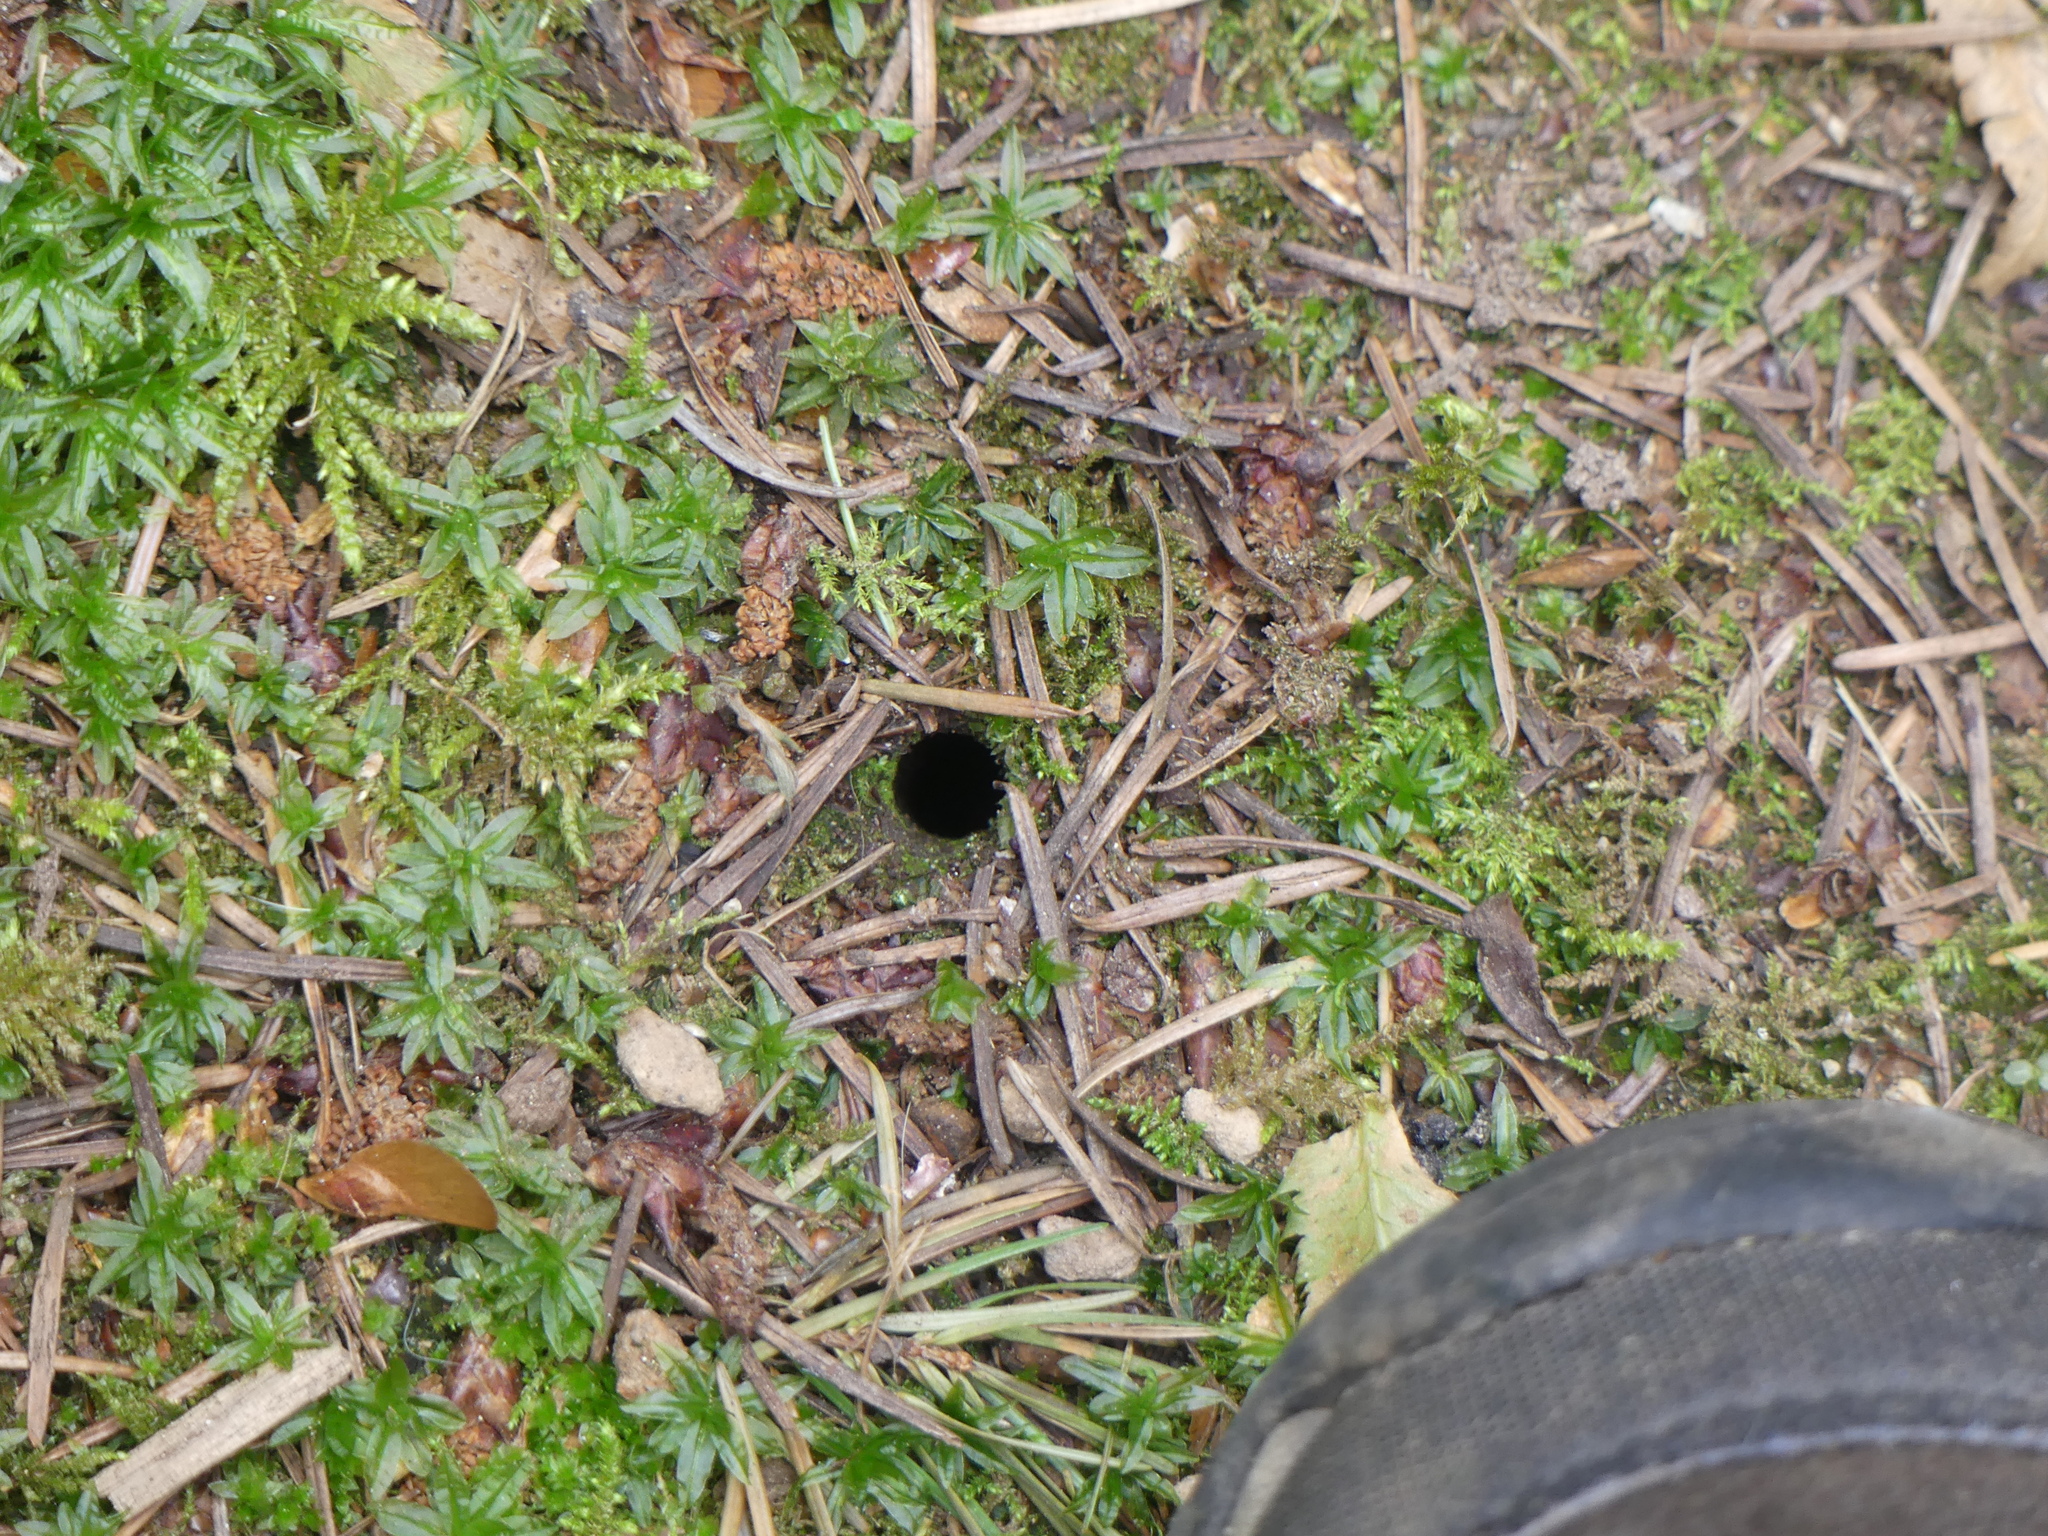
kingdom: Animalia
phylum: Arthropoda
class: Arachnida
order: Araneae
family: Antrodiaetidae
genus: Antrodiaetus
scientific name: Antrodiaetus pacificus
